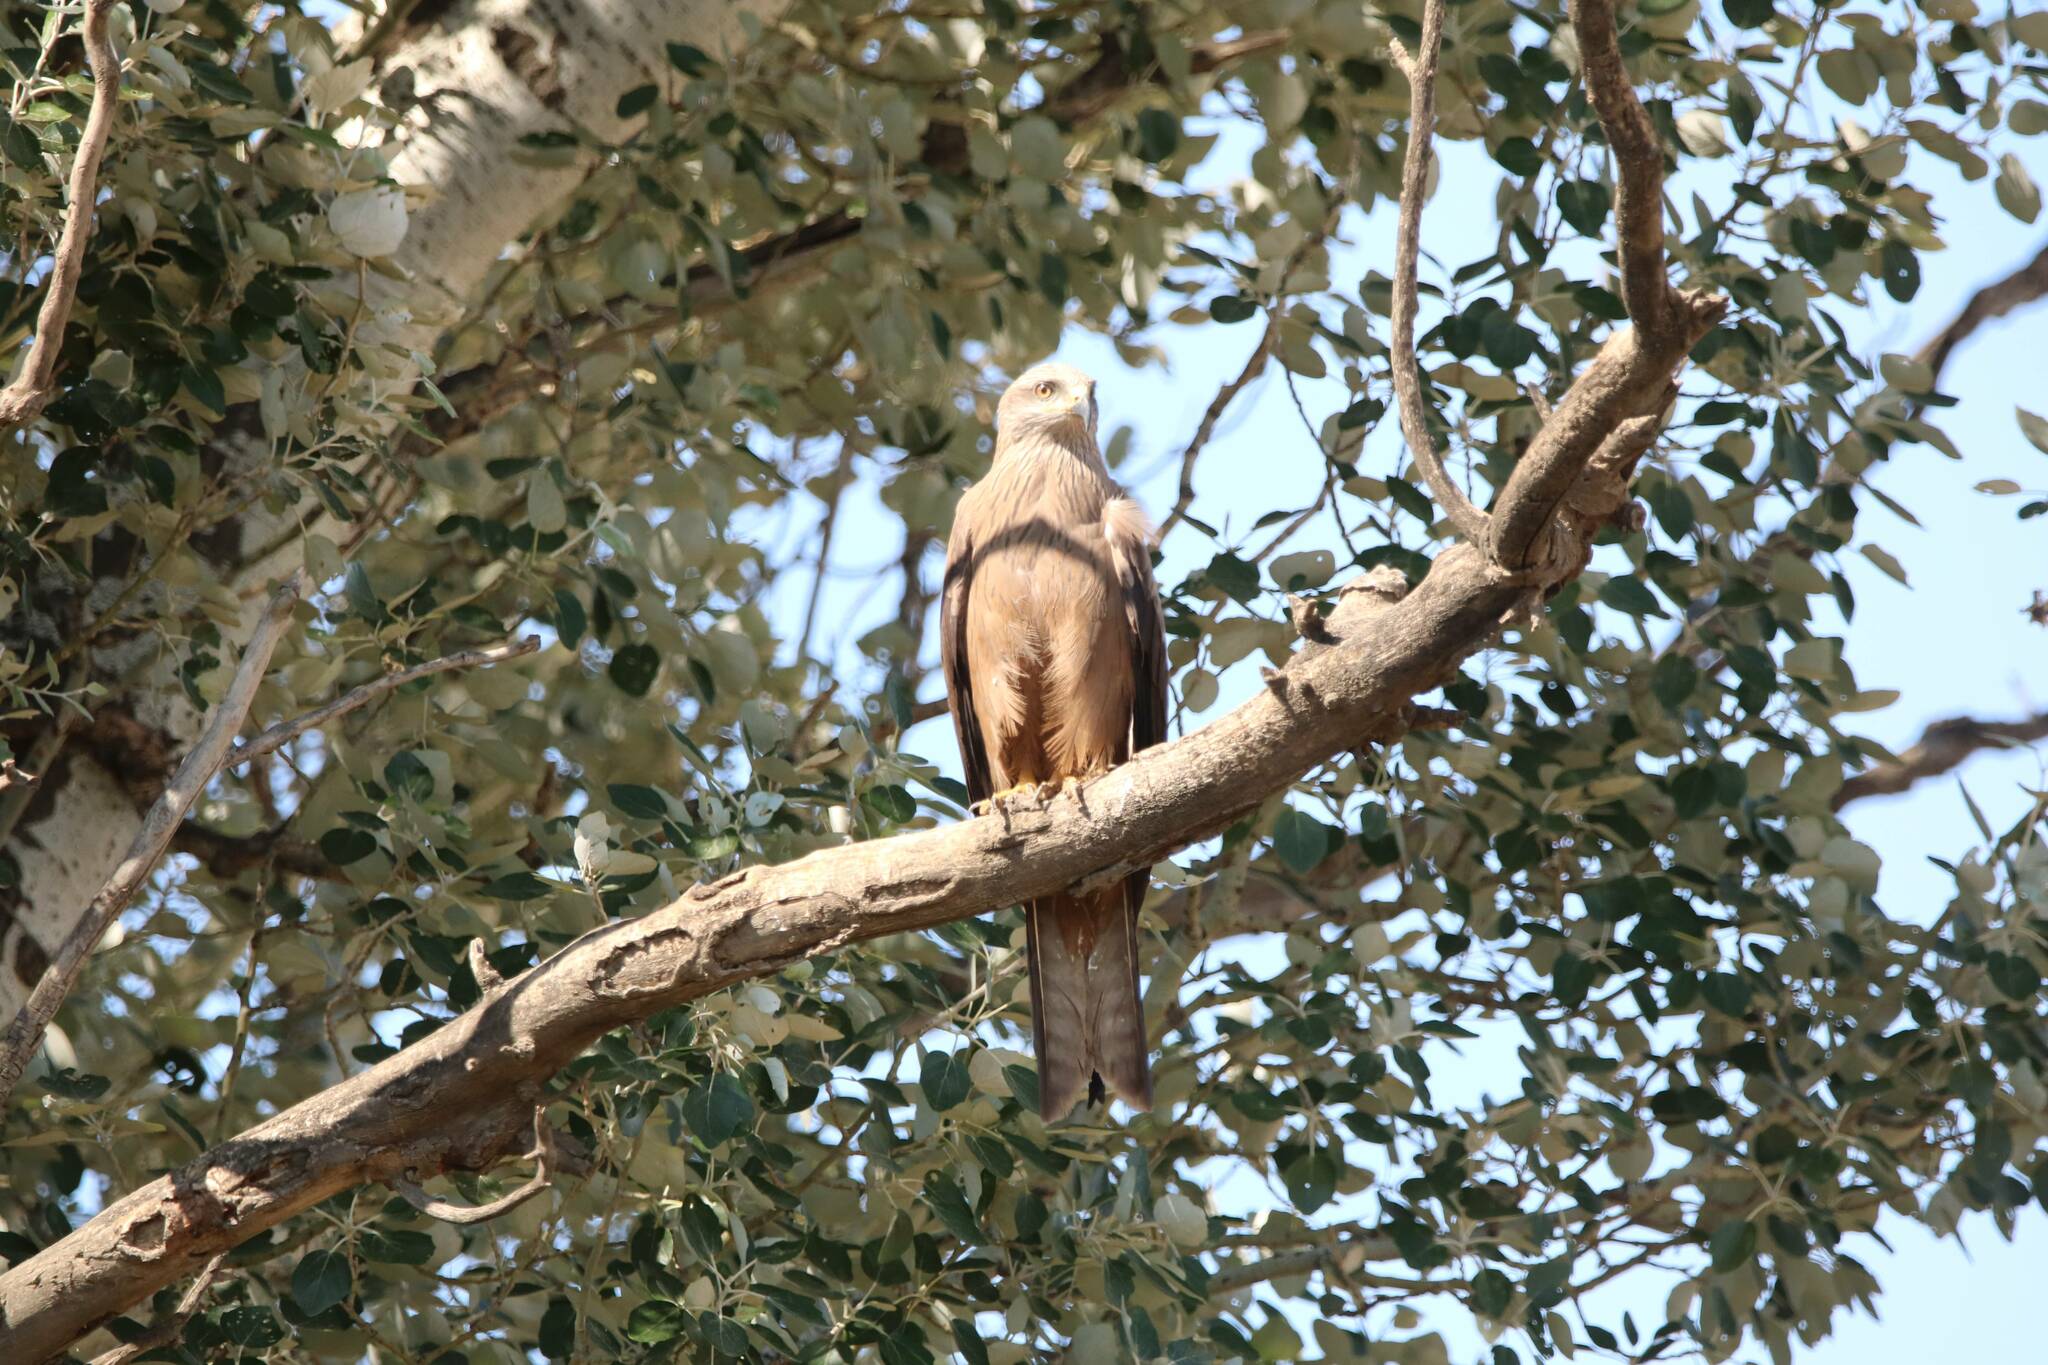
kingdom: Animalia
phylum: Chordata
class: Aves
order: Accipitriformes
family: Accipitridae
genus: Milvus
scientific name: Milvus migrans
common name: Black kite
